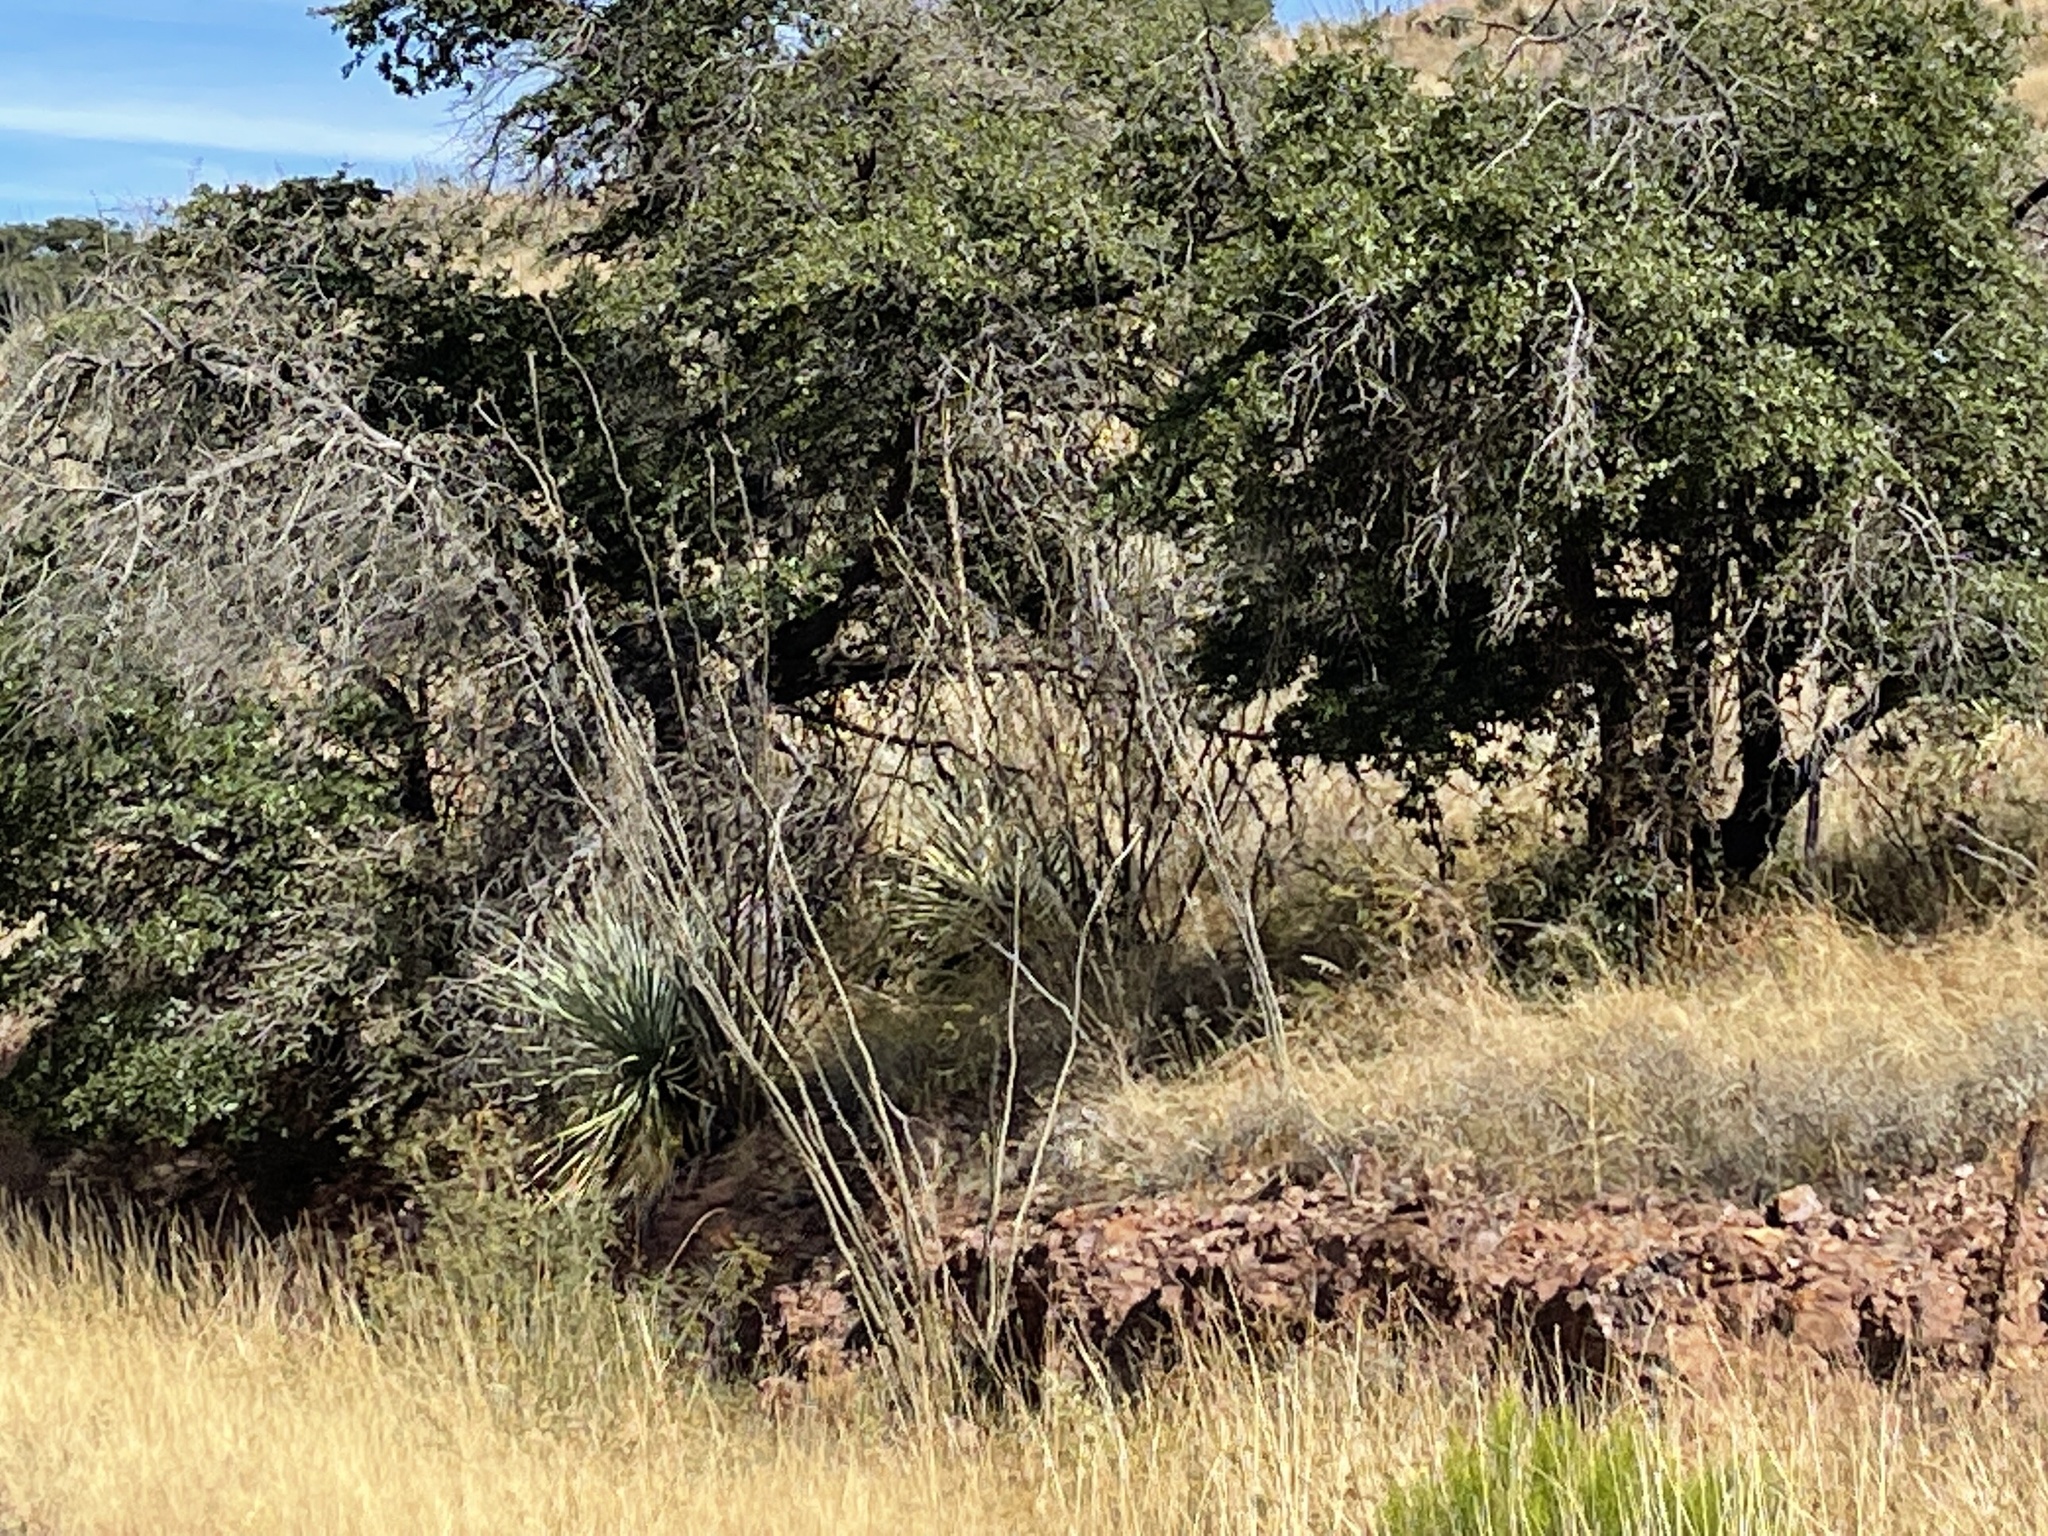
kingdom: Plantae
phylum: Tracheophyta
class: Magnoliopsida
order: Ericales
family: Fouquieriaceae
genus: Fouquieria
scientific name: Fouquieria splendens
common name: Vine-cactus
